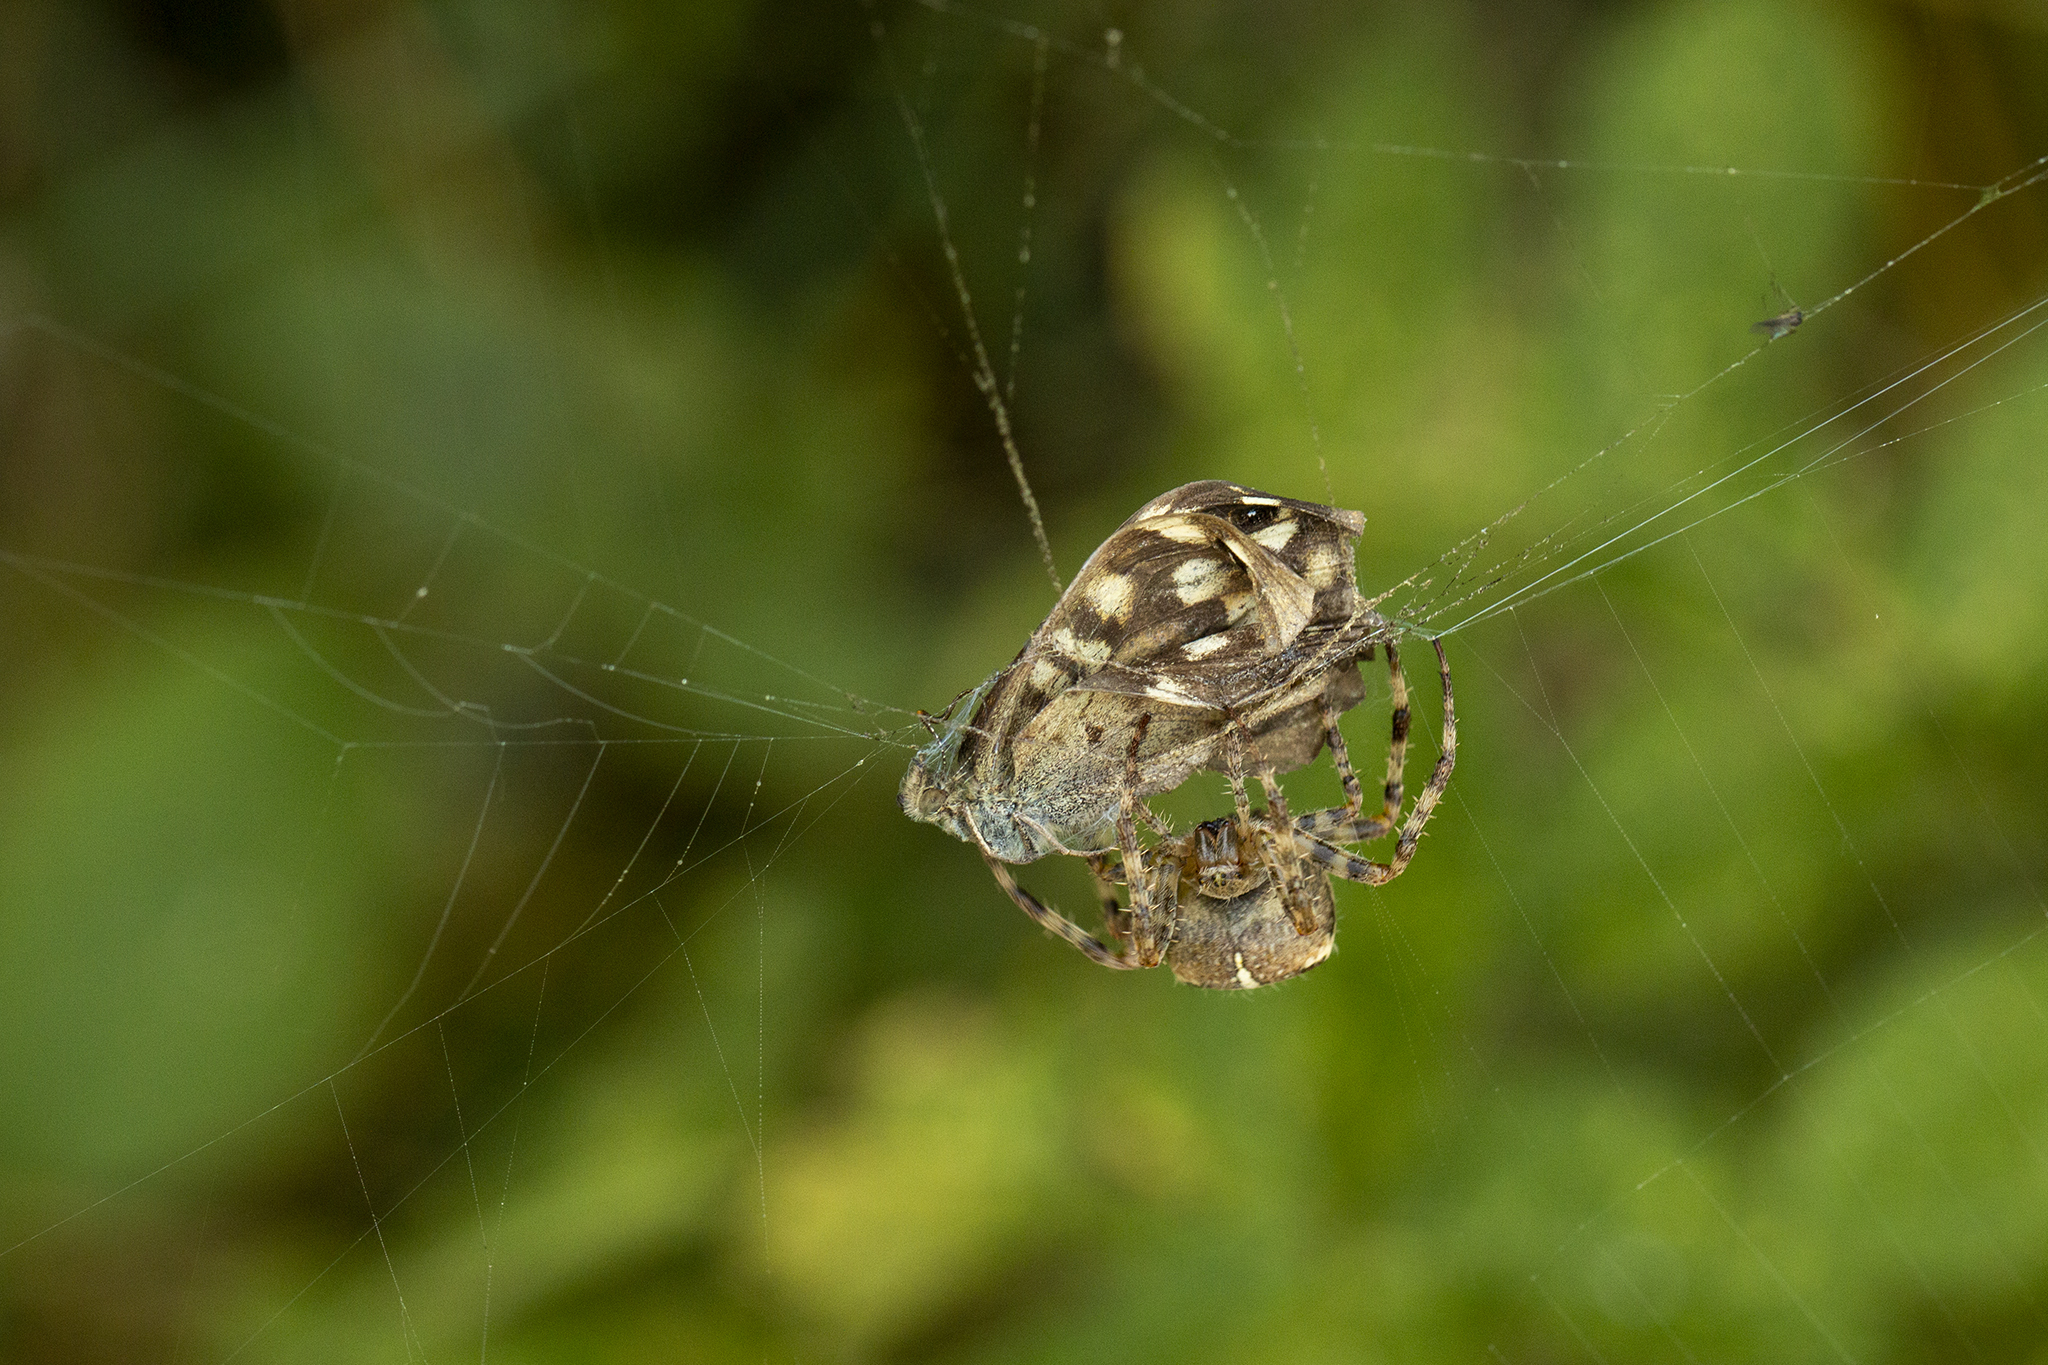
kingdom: Animalia
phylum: Arthropoda
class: Insecta
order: Lepidoptera
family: Nymphalidae
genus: Pararge
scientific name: Pararge aegeria
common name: Speckled wood
